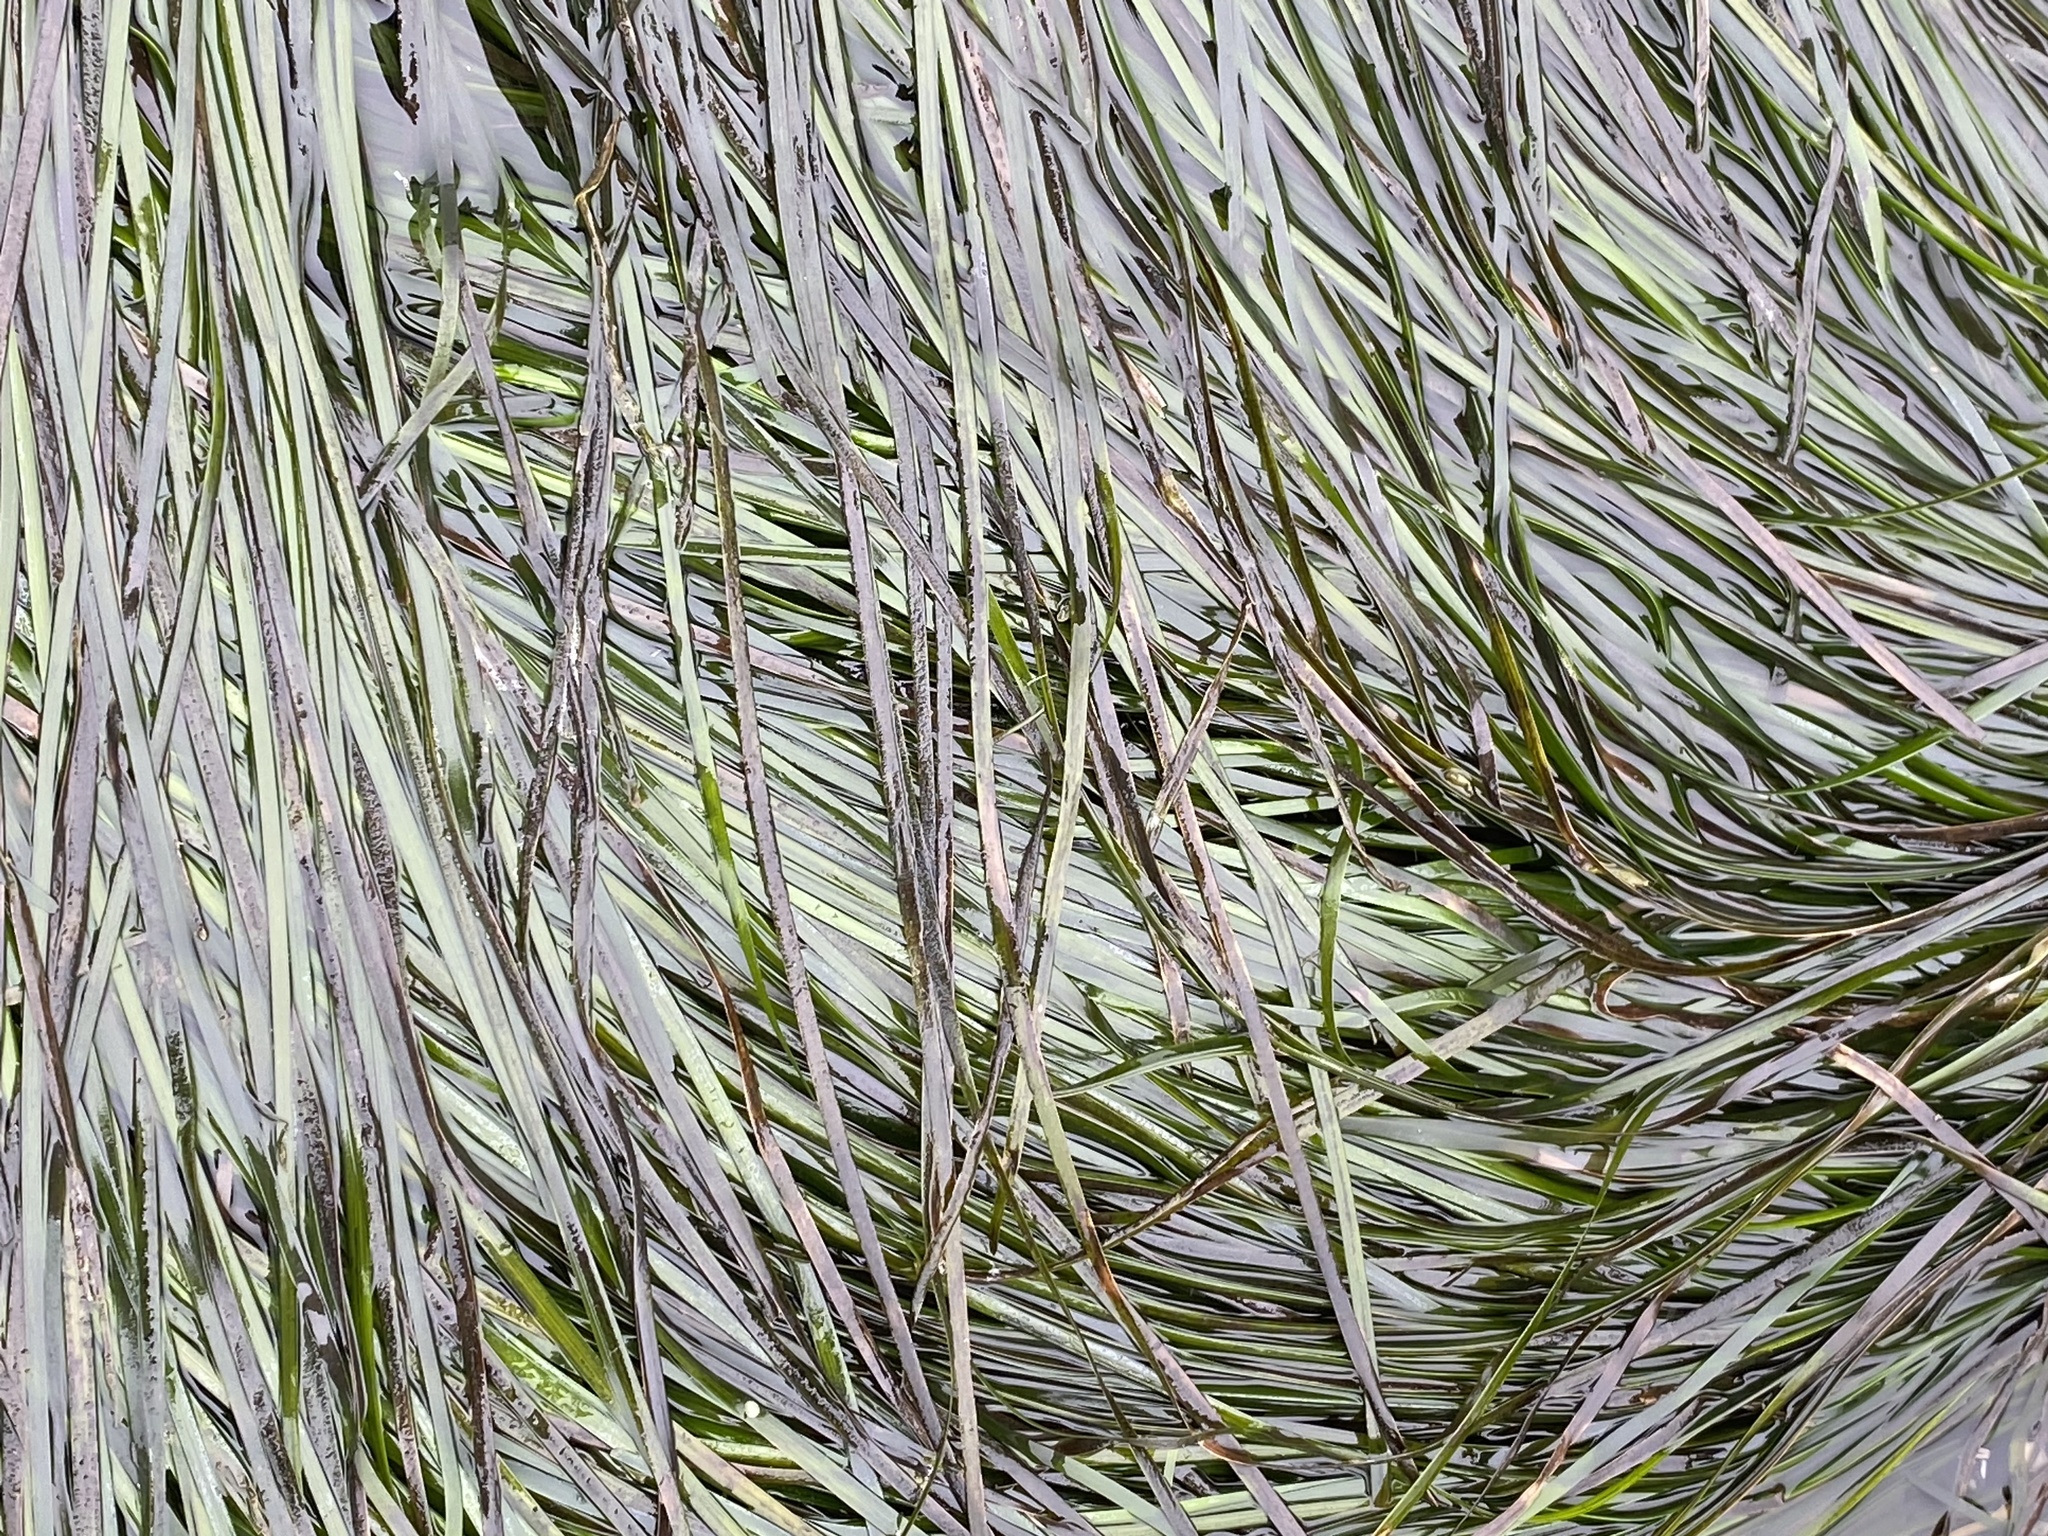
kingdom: Plantae
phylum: Tracheophyta
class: Liliopsida
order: Alismatales
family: Zosteraceae
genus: Phyllospadix
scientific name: Phyllospadix scouleri
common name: Species code: ps
